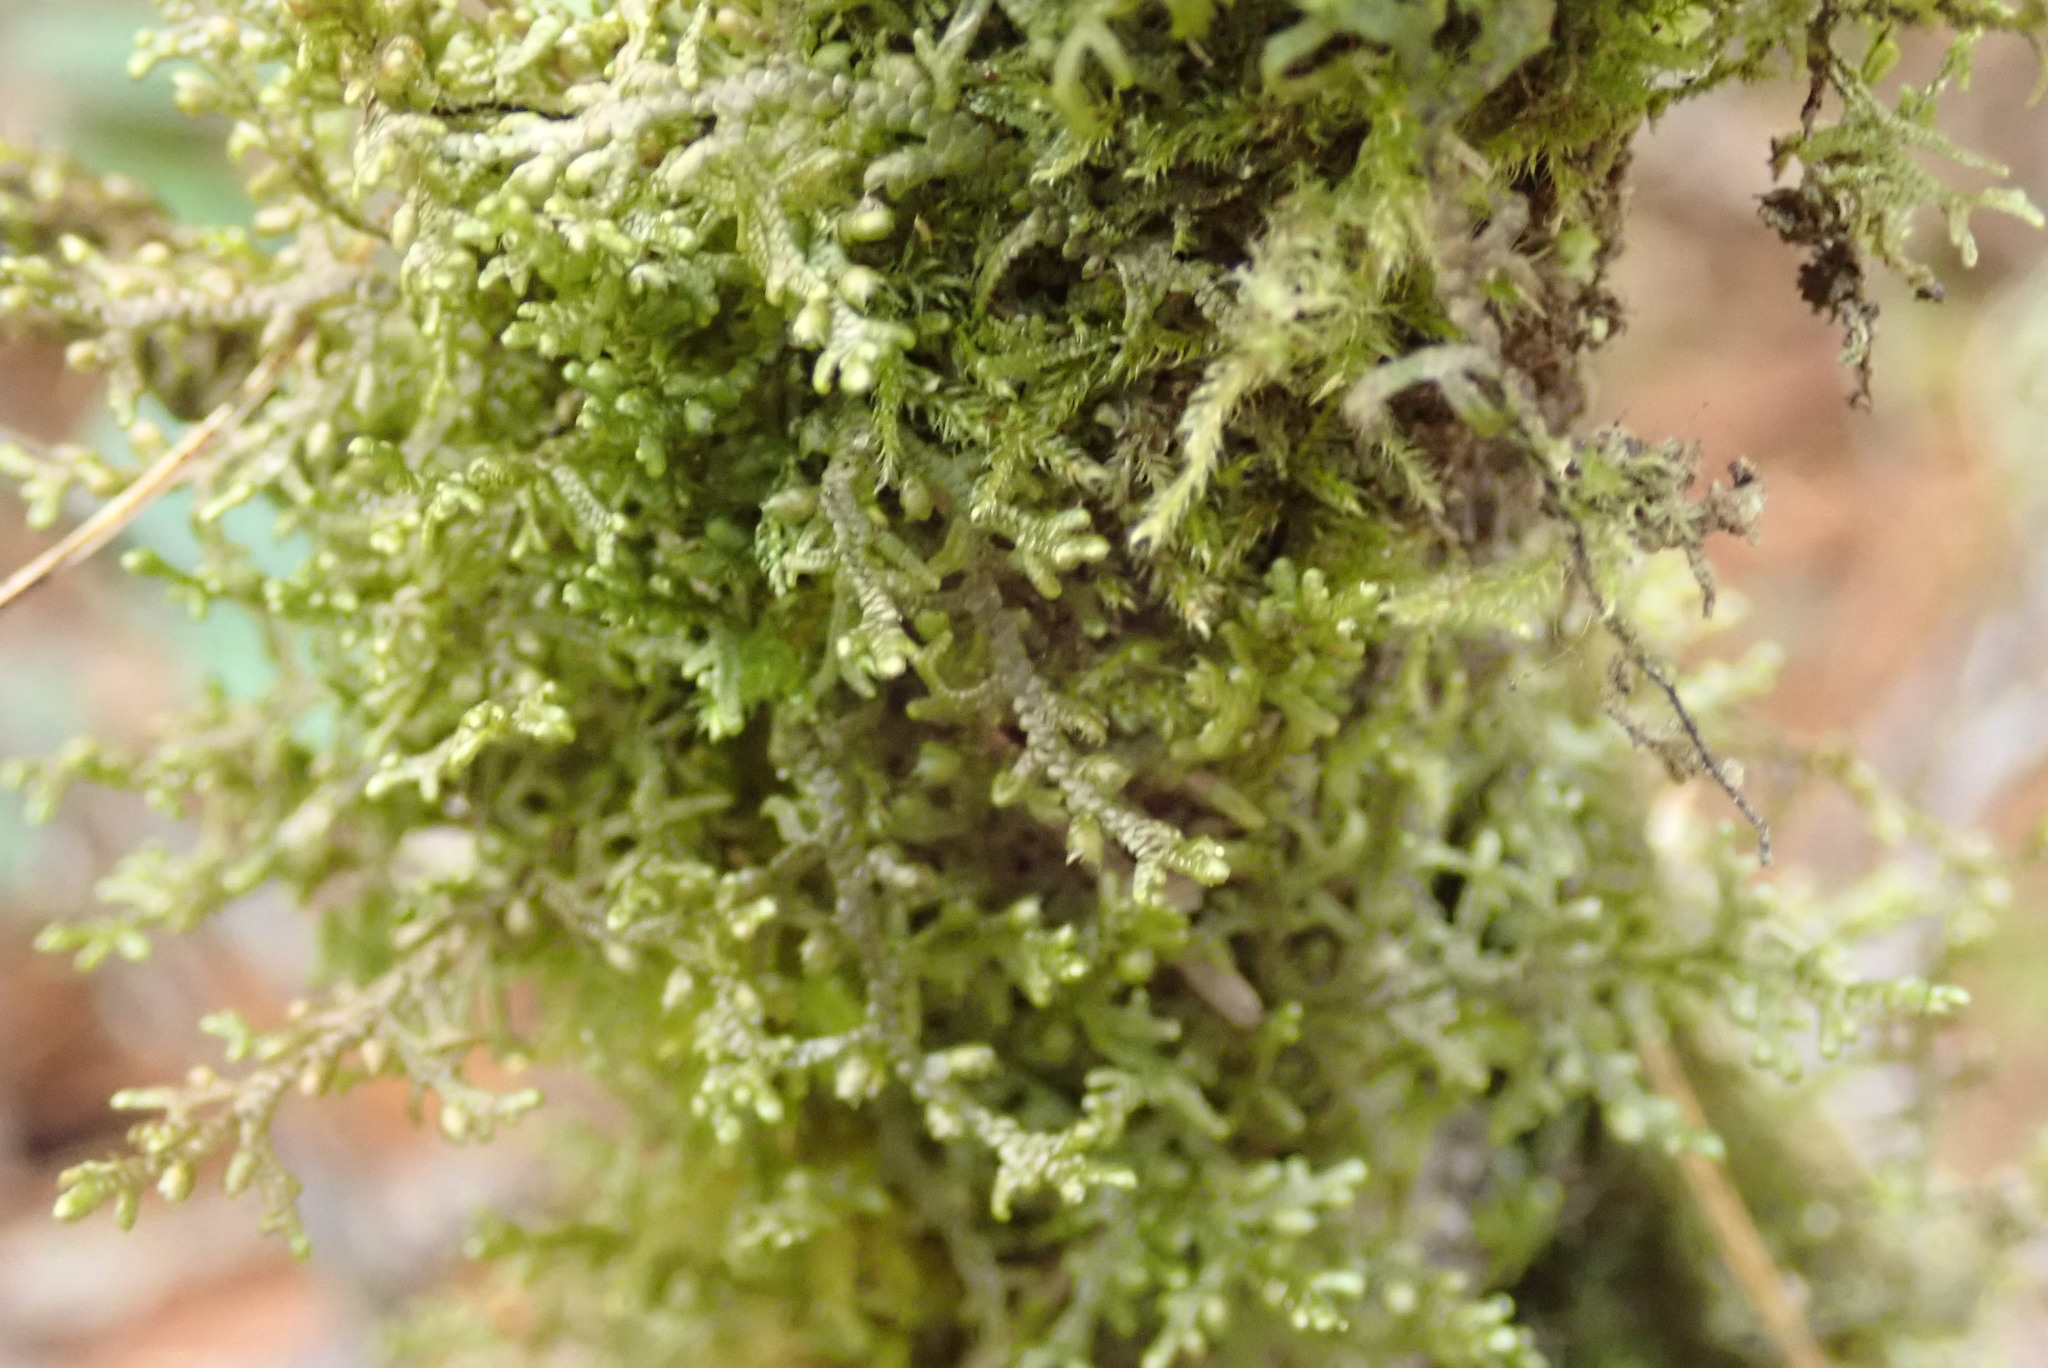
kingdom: Plantae
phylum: Marchantiophyta
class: Jungermanniopsida
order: Porellales
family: Frullaniaceae
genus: Frullania
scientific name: Frullania nisquallensis
